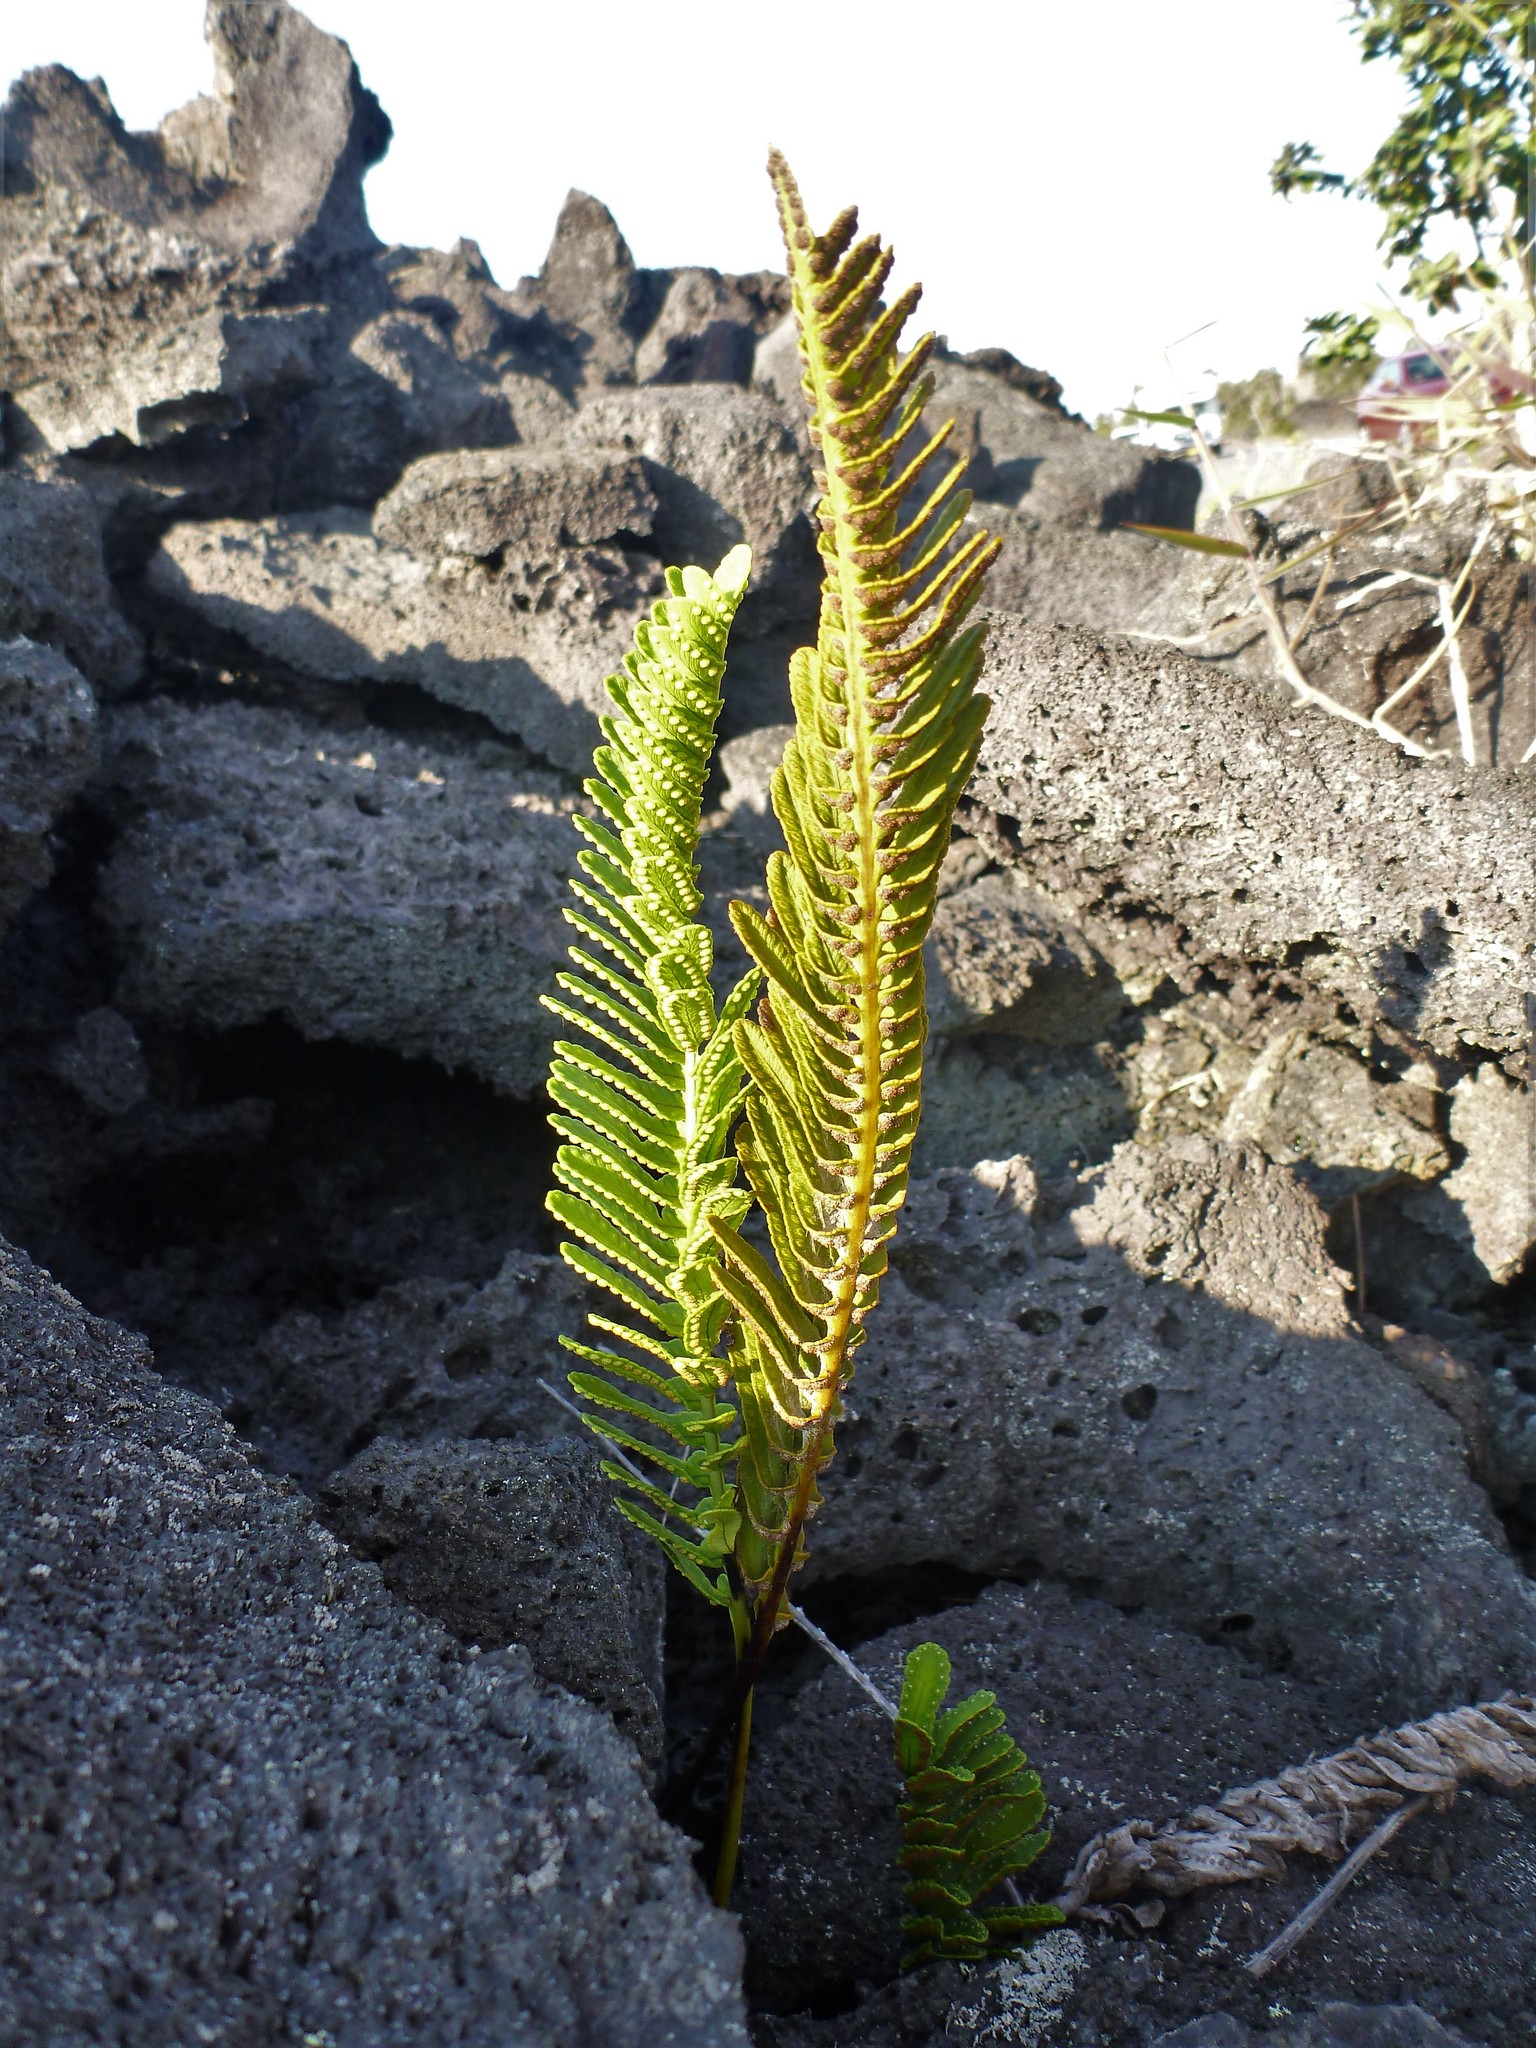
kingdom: Plantae
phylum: Tracheophyta
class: Polypodiopsida
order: Polypodiales
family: Polypodiaceae
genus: Polypodium
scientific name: Polypodium pellucidum
